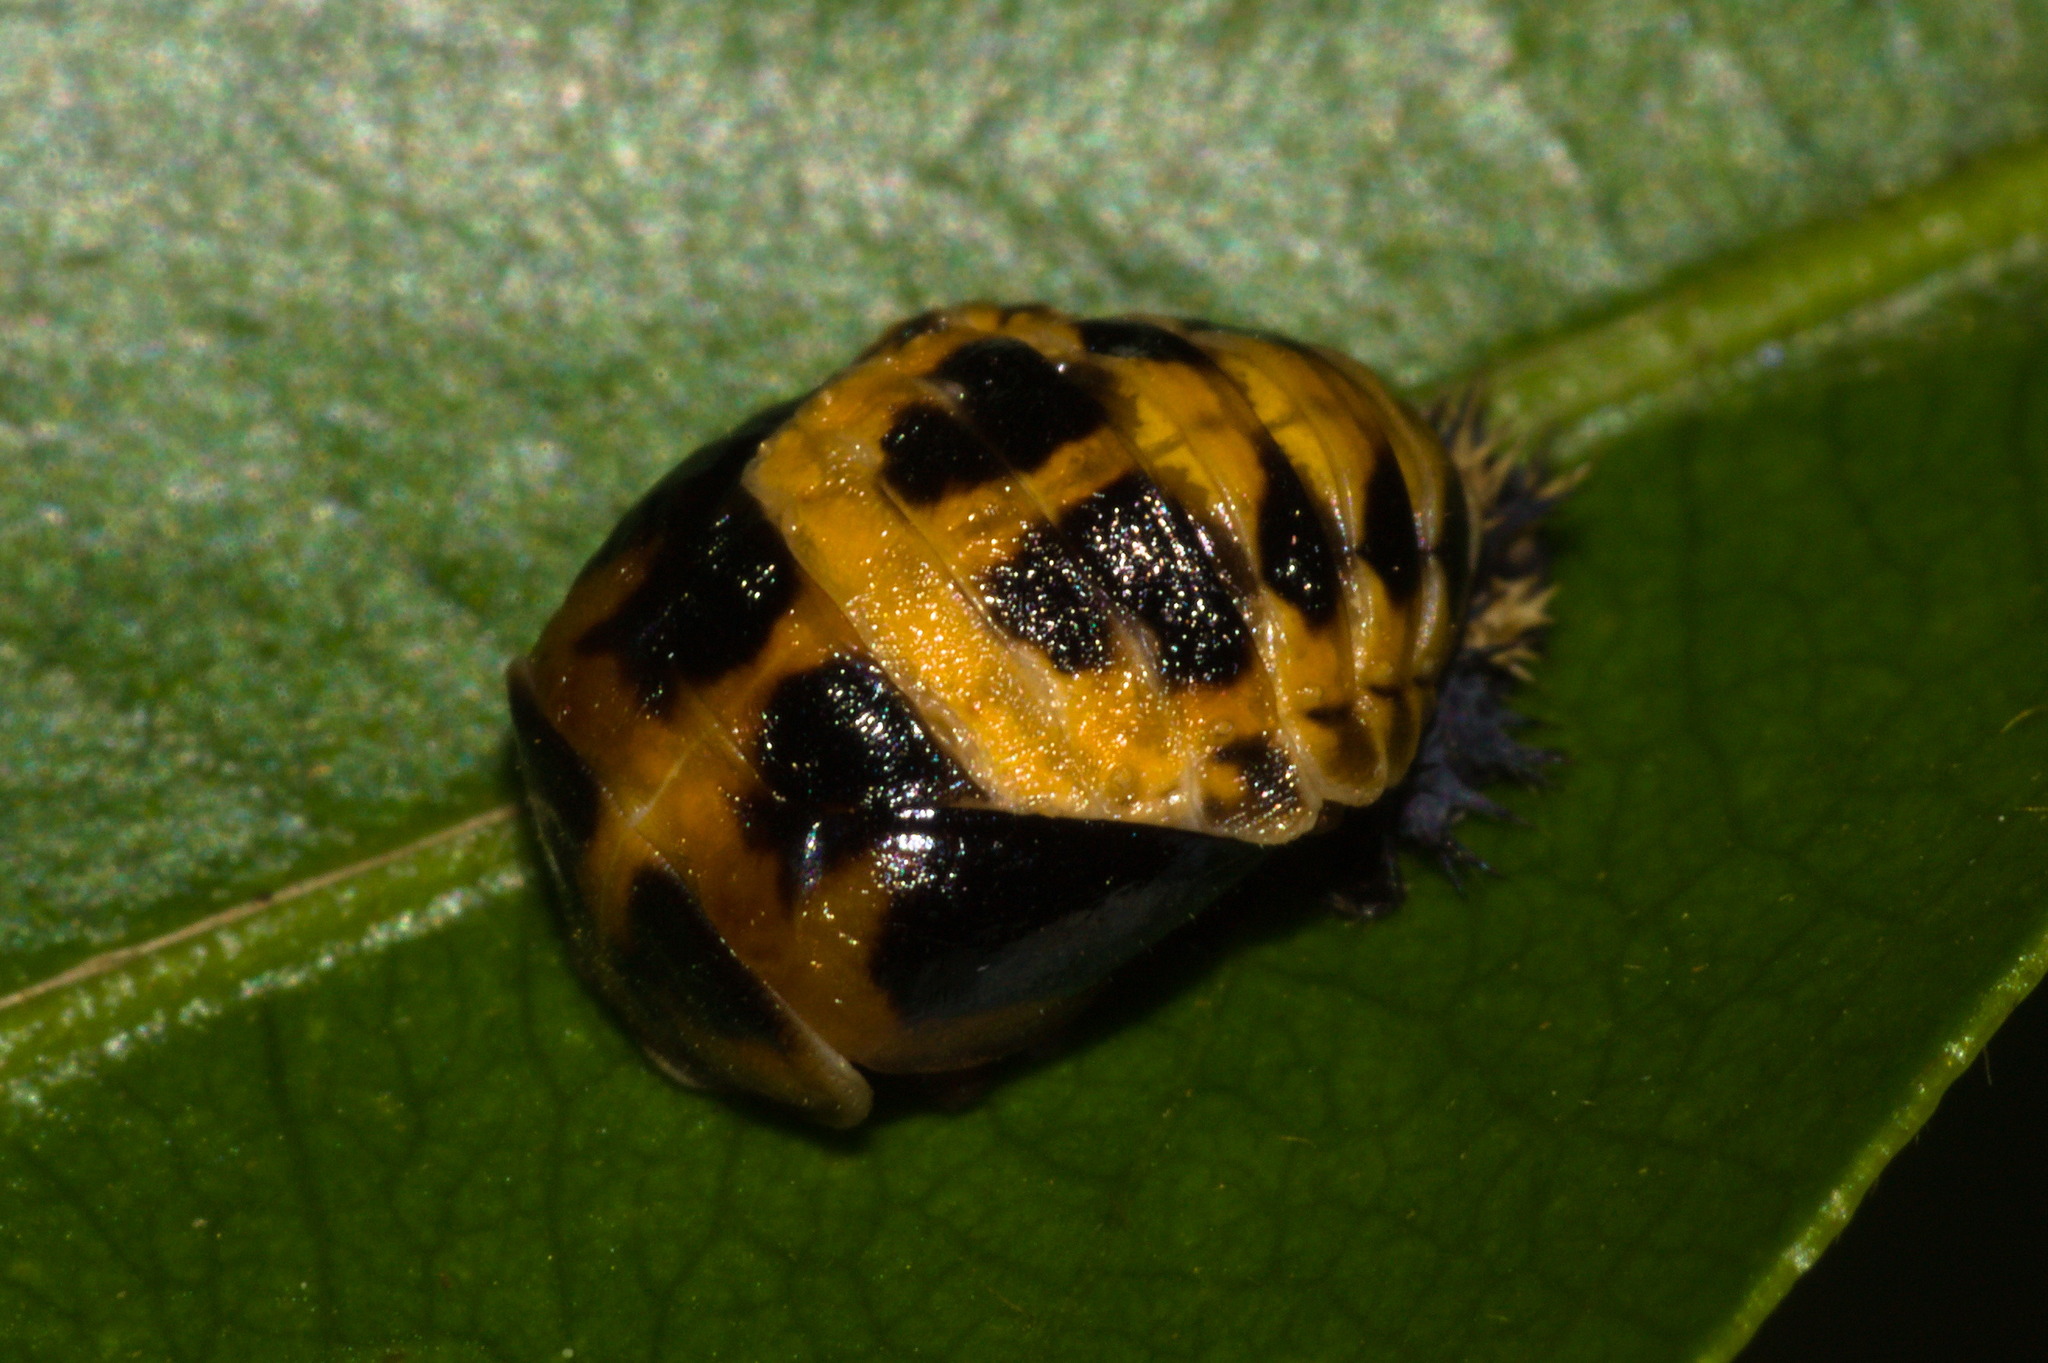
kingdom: Animalia
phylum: Arthropoda
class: Insecta
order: Coleoptera
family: Coccinellidae
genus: Harmonia
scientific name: Harmonia axyridis
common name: Harlequin ladybird
